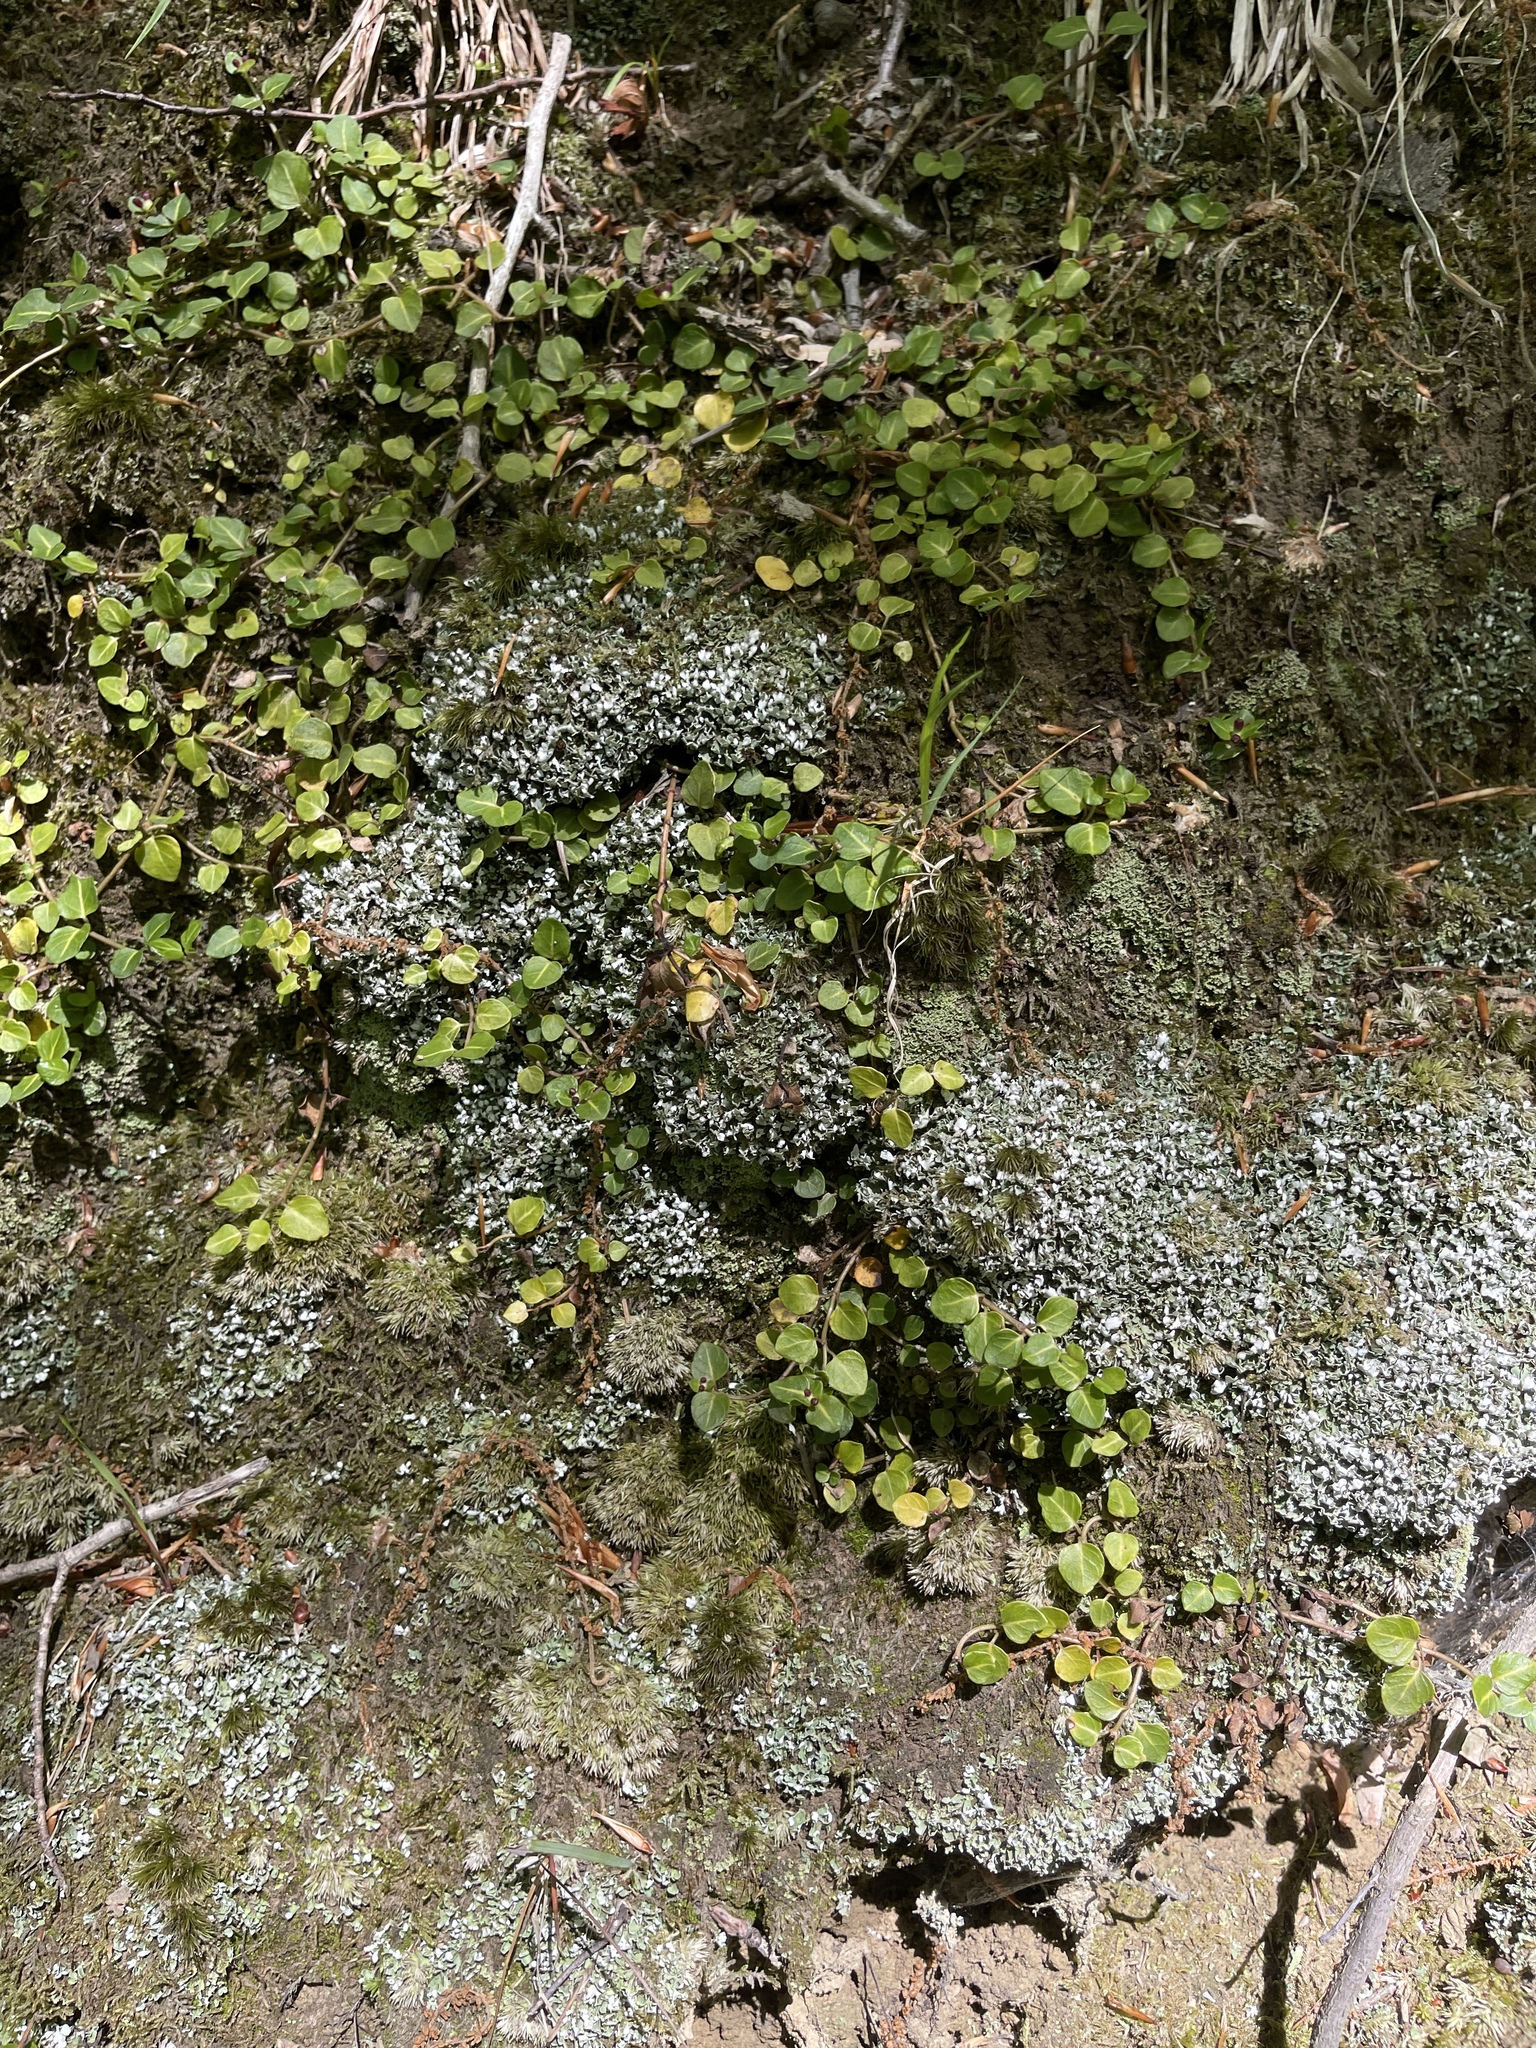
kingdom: Fungi
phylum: Ascomycota
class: Lecanoromycetes
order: Lecanorales
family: Cladoniaceae
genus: Cladonia
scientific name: Cladonia apodocarpa
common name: Stalkless cladonia
